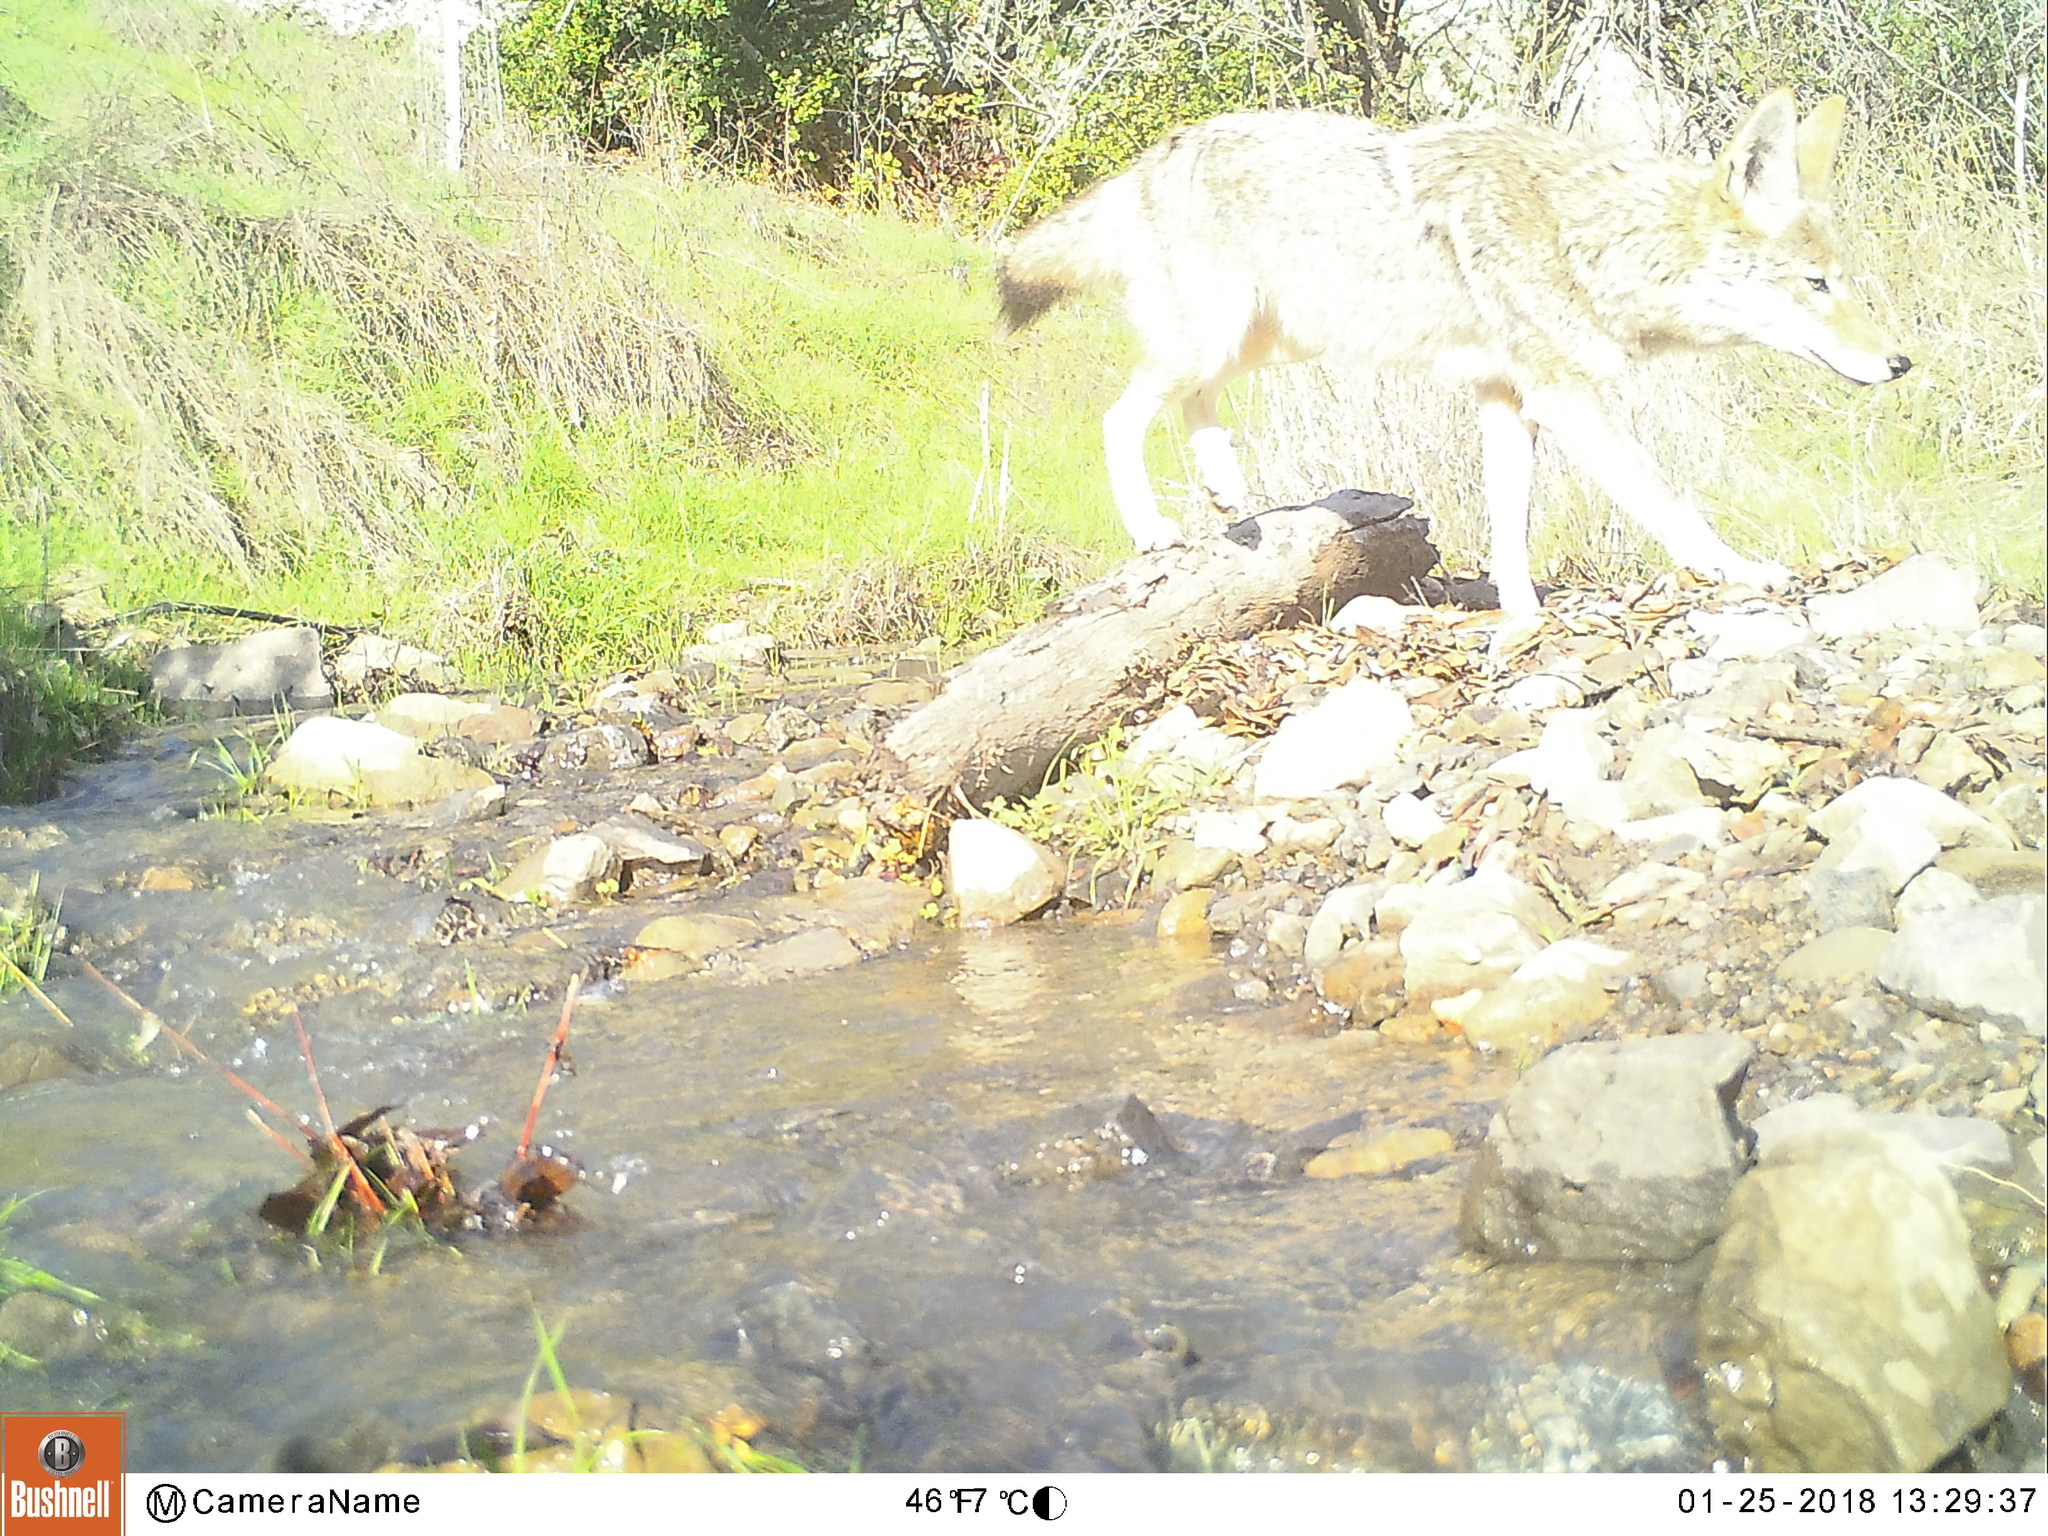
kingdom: Animalia
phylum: Chordata
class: Mammalia
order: Carnivora
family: Canidae
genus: Canis
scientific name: Canis latrans
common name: Coyote
